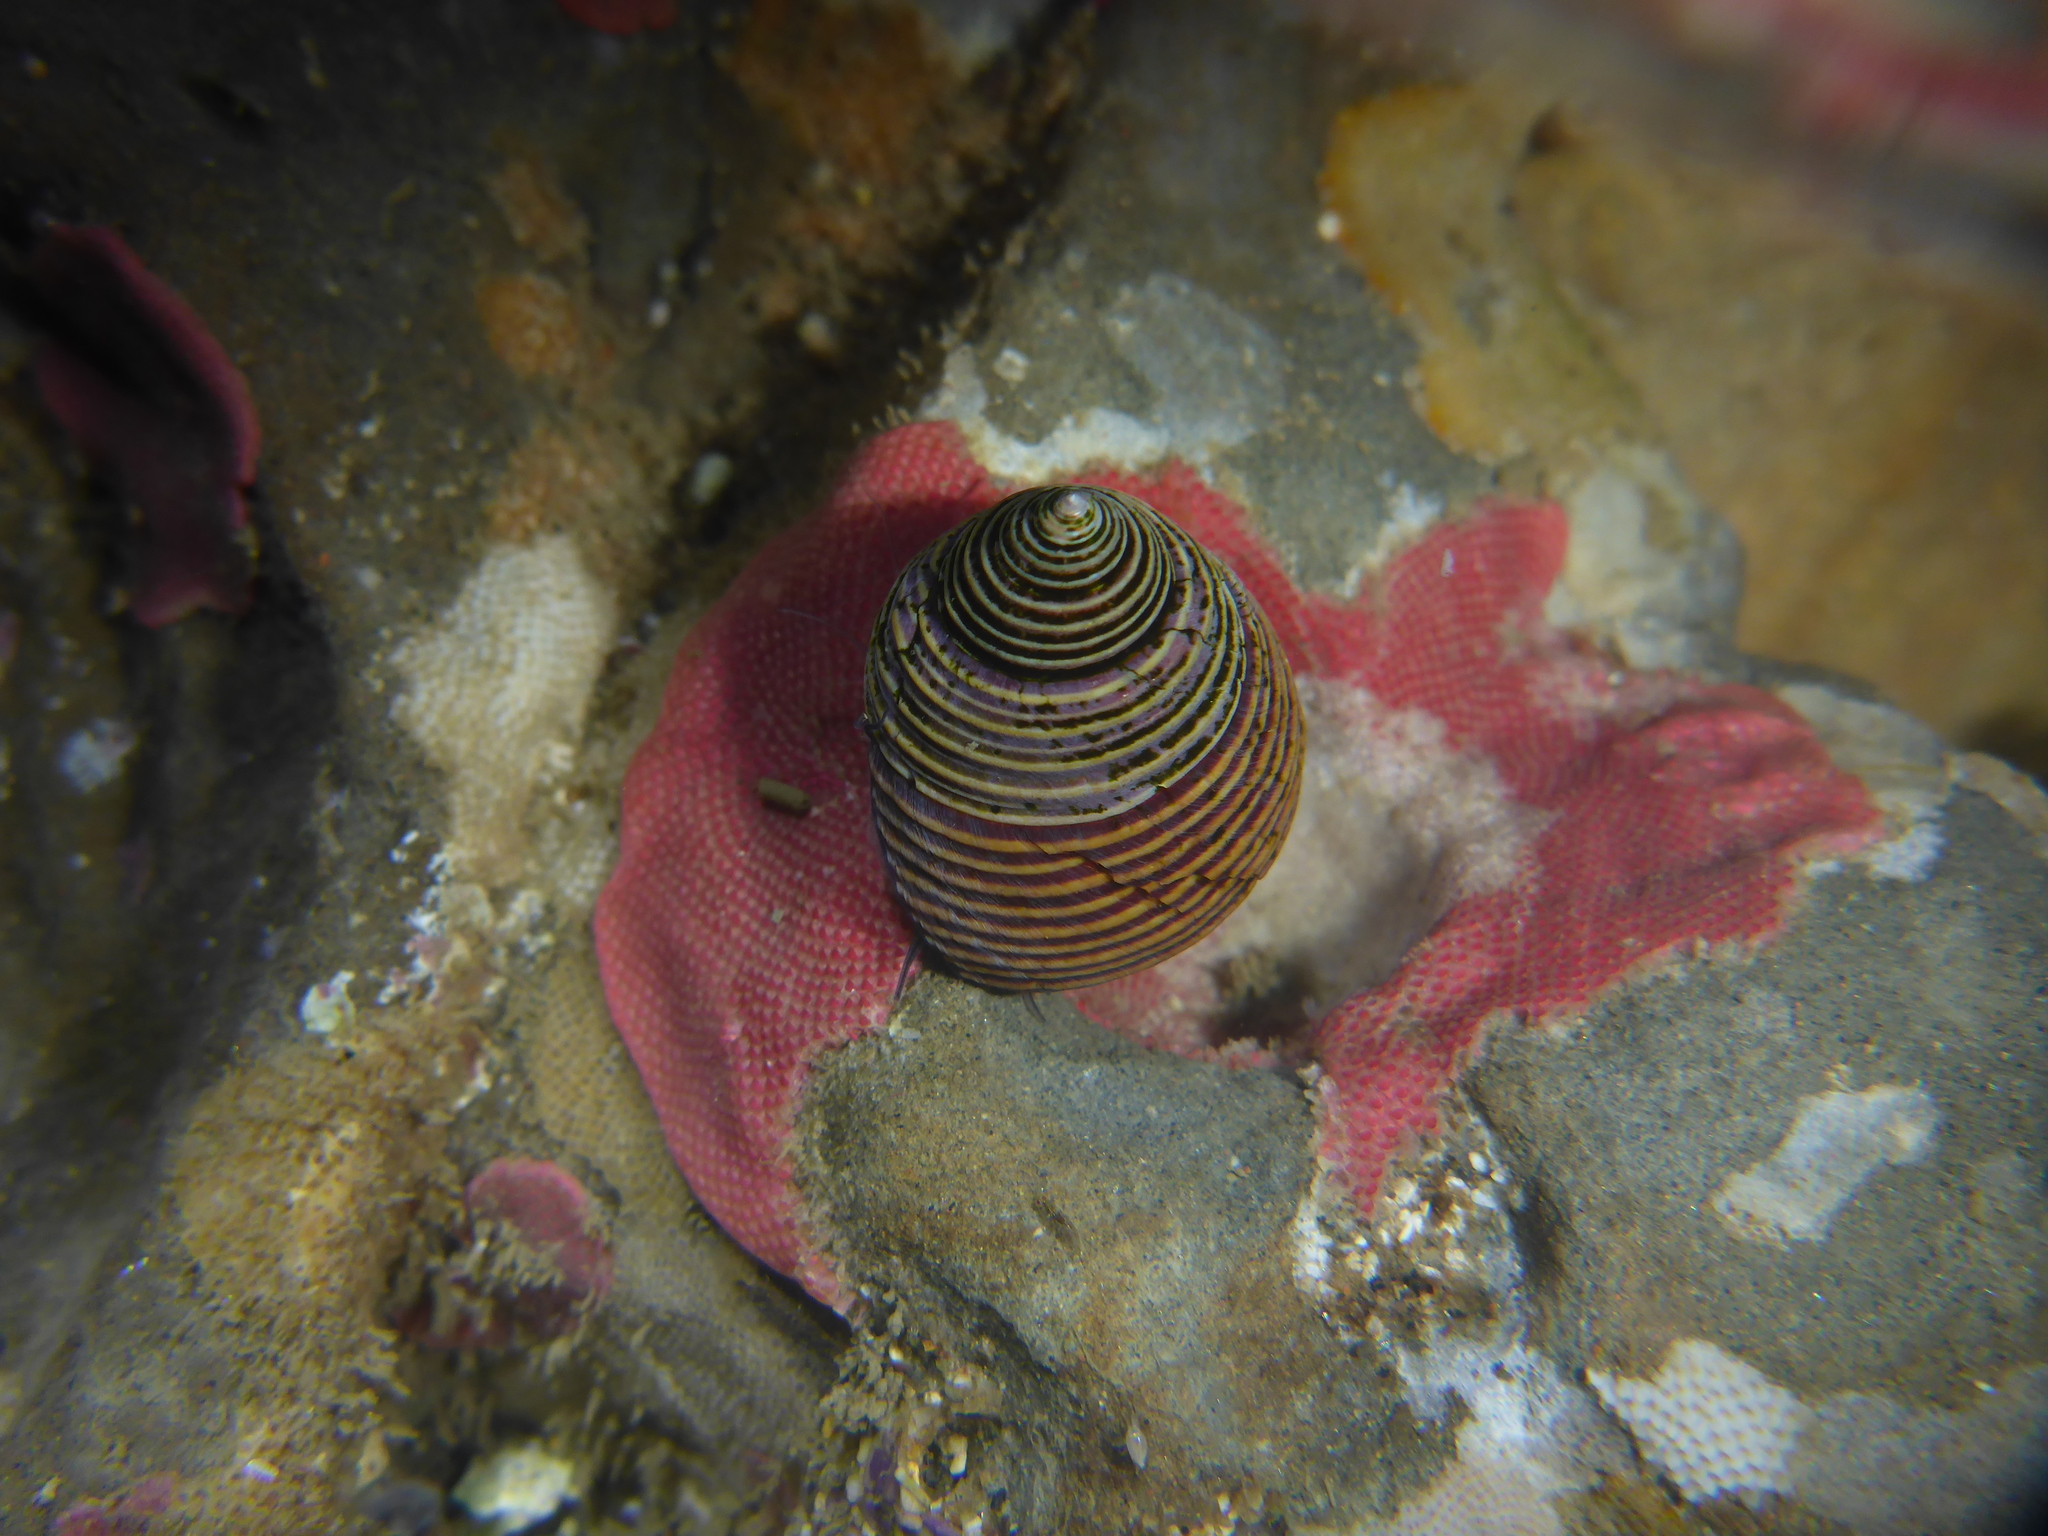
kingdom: Animalia
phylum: Mollusca
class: Gastropoda
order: Trochida
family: Calliostomatidae
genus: Calliostoma
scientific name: Calliostoma ligatum
